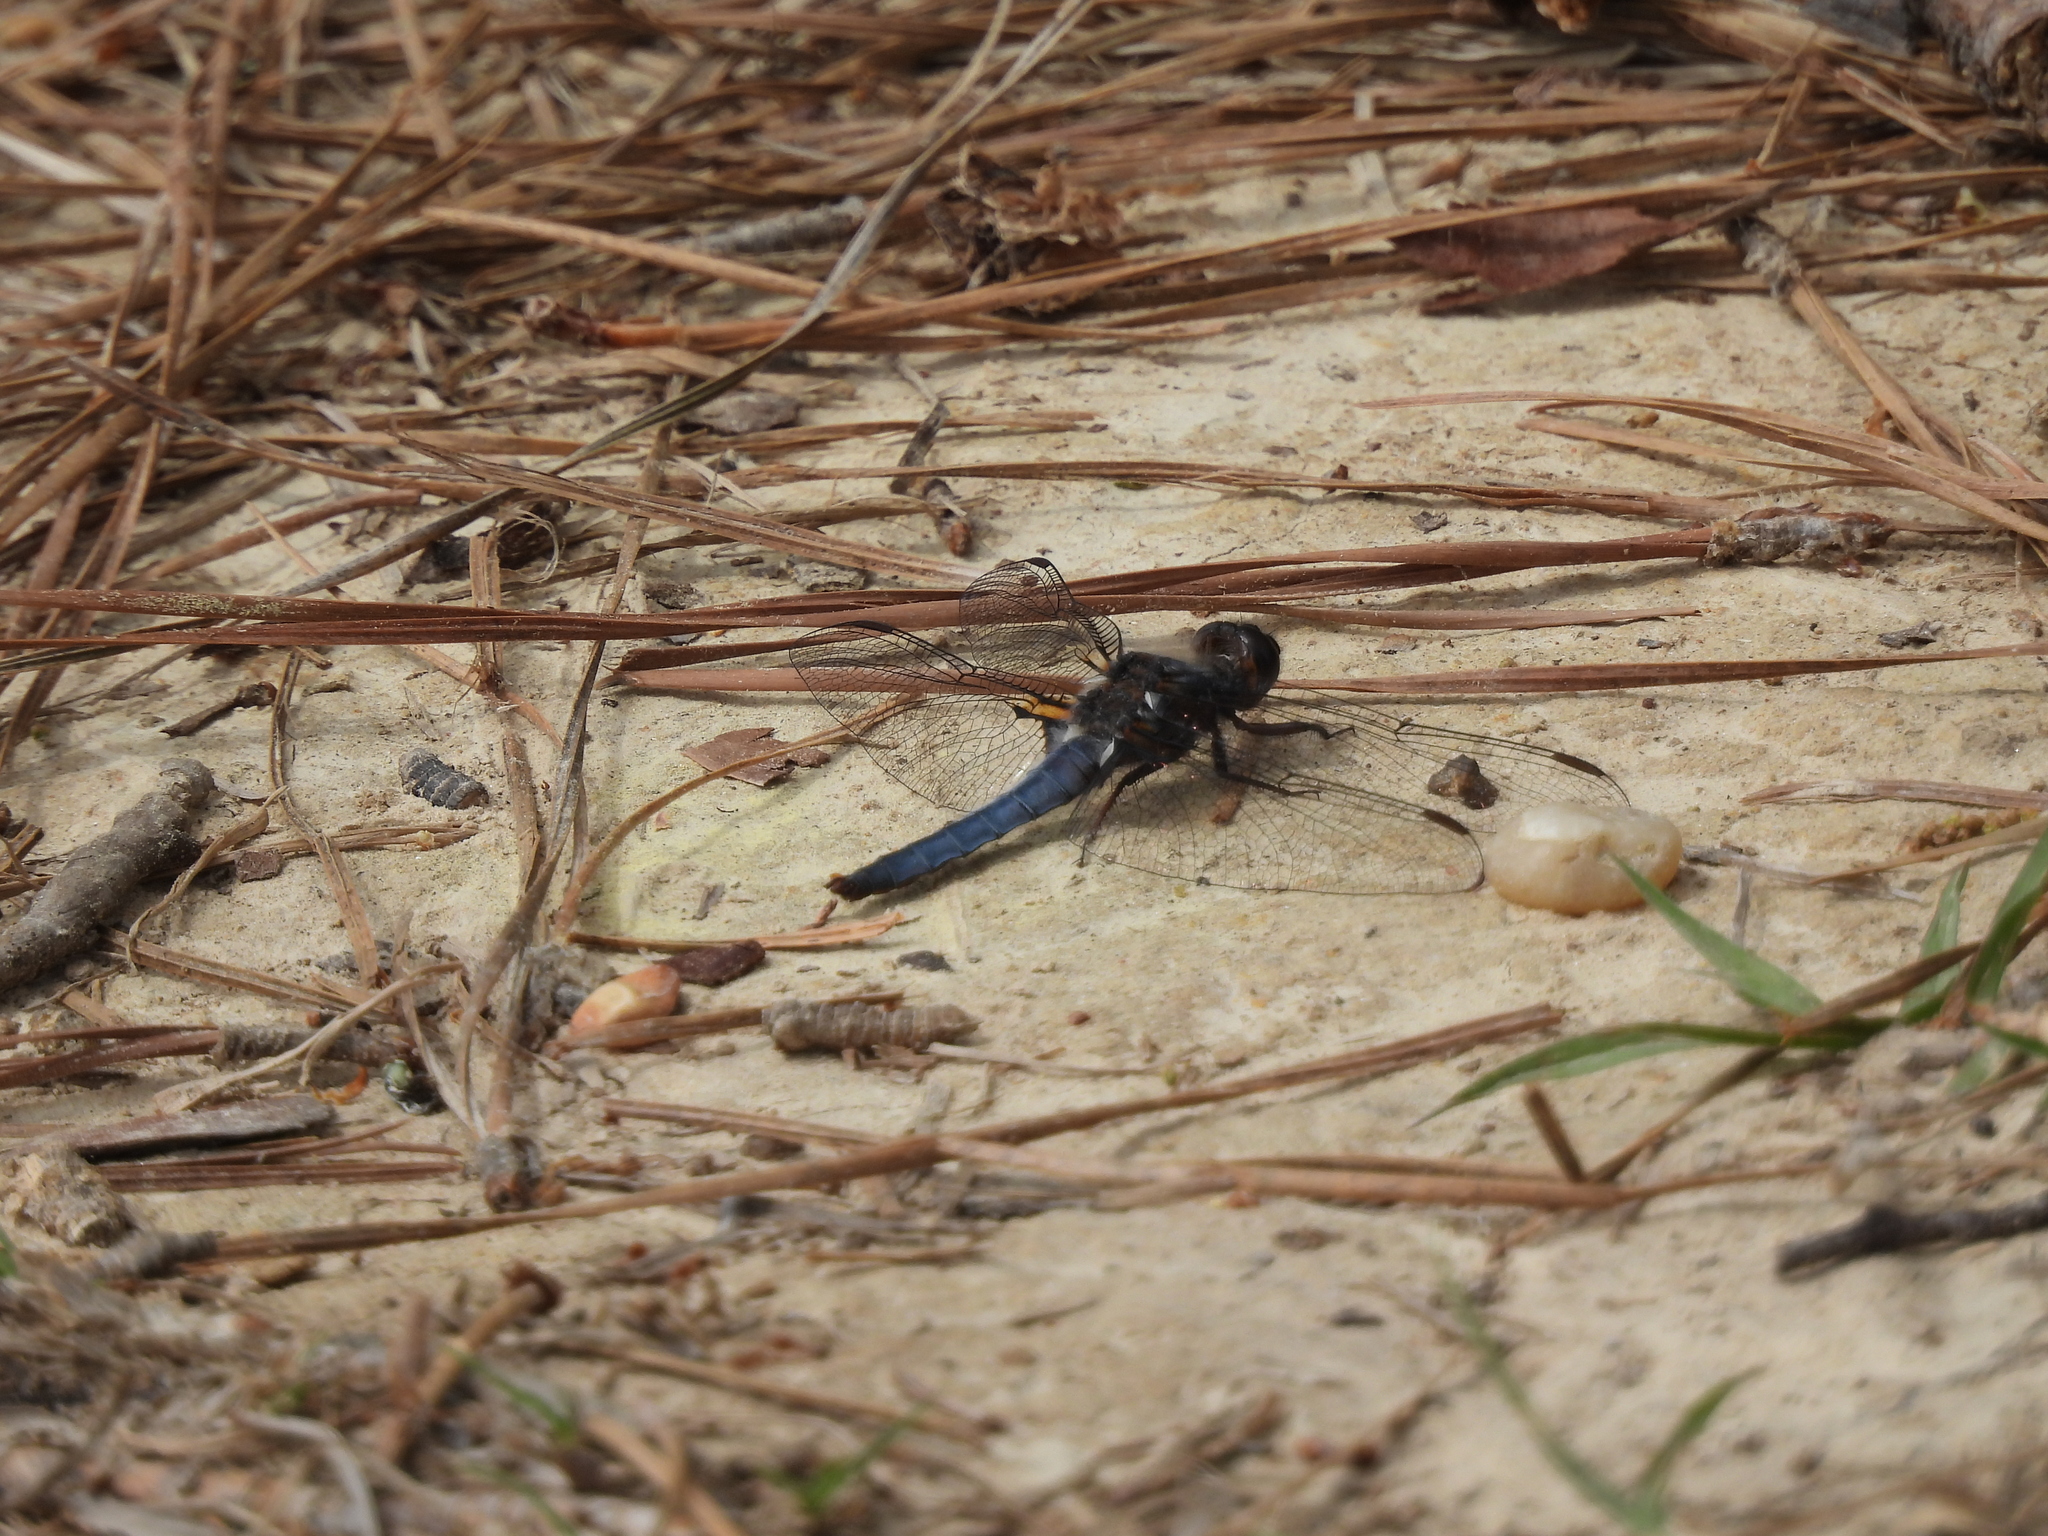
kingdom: Animalia
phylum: Arthropoda
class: Insecta
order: Odonata
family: Libellulidae
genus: Ladona
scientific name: Ladona deplanata
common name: Blue corporal
